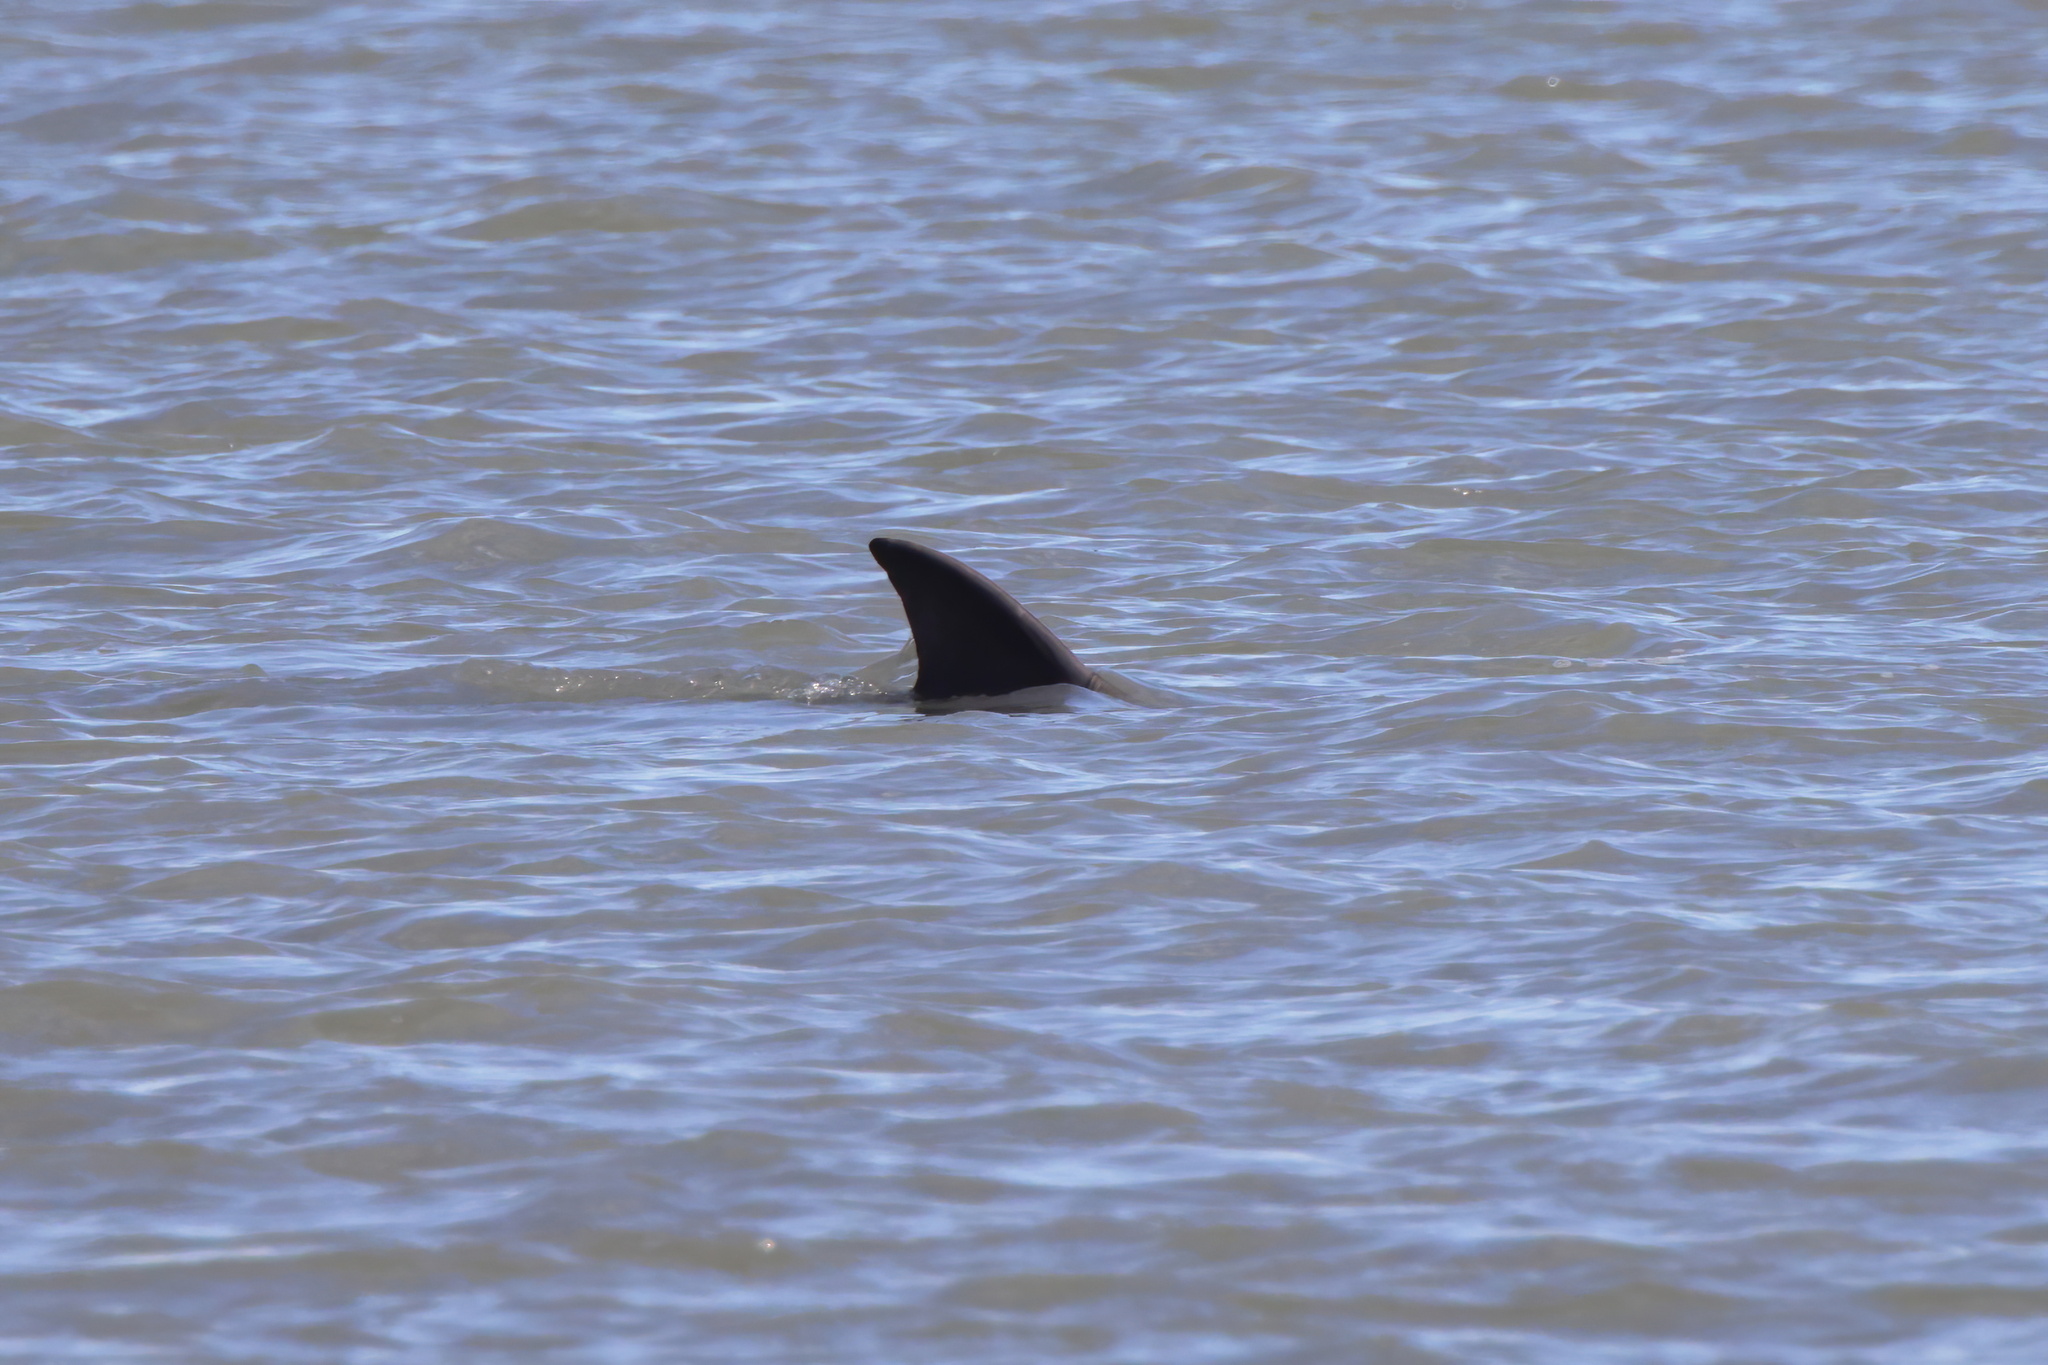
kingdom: Animalia
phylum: Chordata
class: Mammalia
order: Cetacea
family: Delphinidae
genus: Tursiops
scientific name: Tursiops truncatus
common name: Bottlenose dolphin
